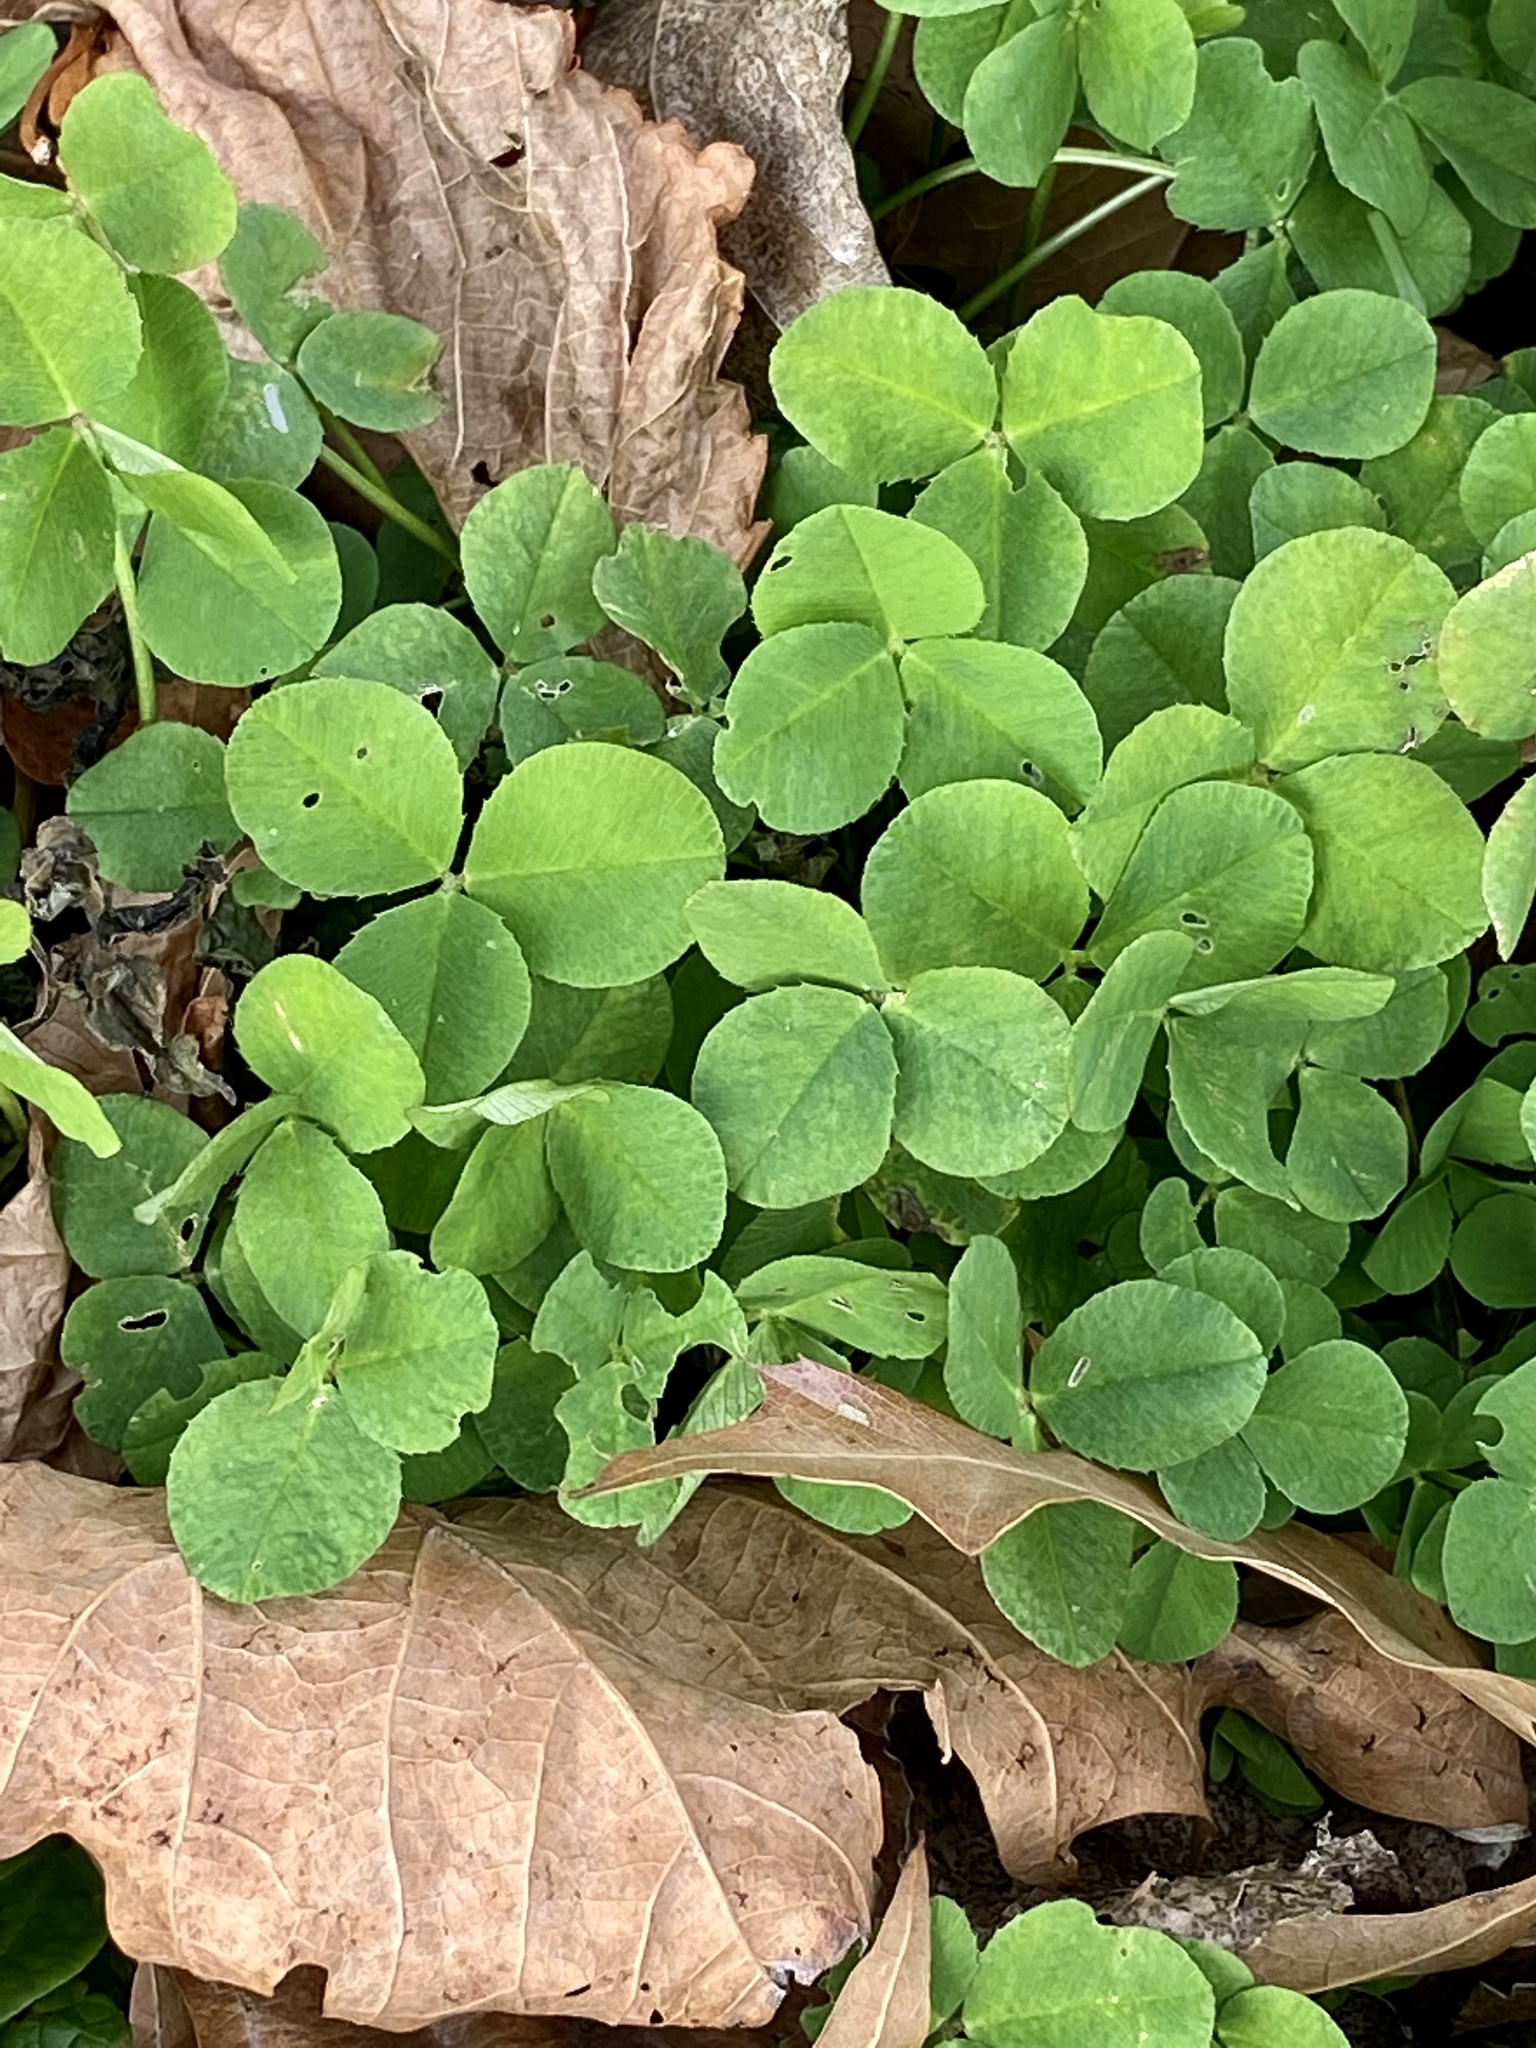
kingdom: Plantae
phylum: Tracheophyta
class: Magnoliopsida
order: Fabales
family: Fabaceae
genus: Trifolium
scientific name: Trifolium repens
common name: White clover
